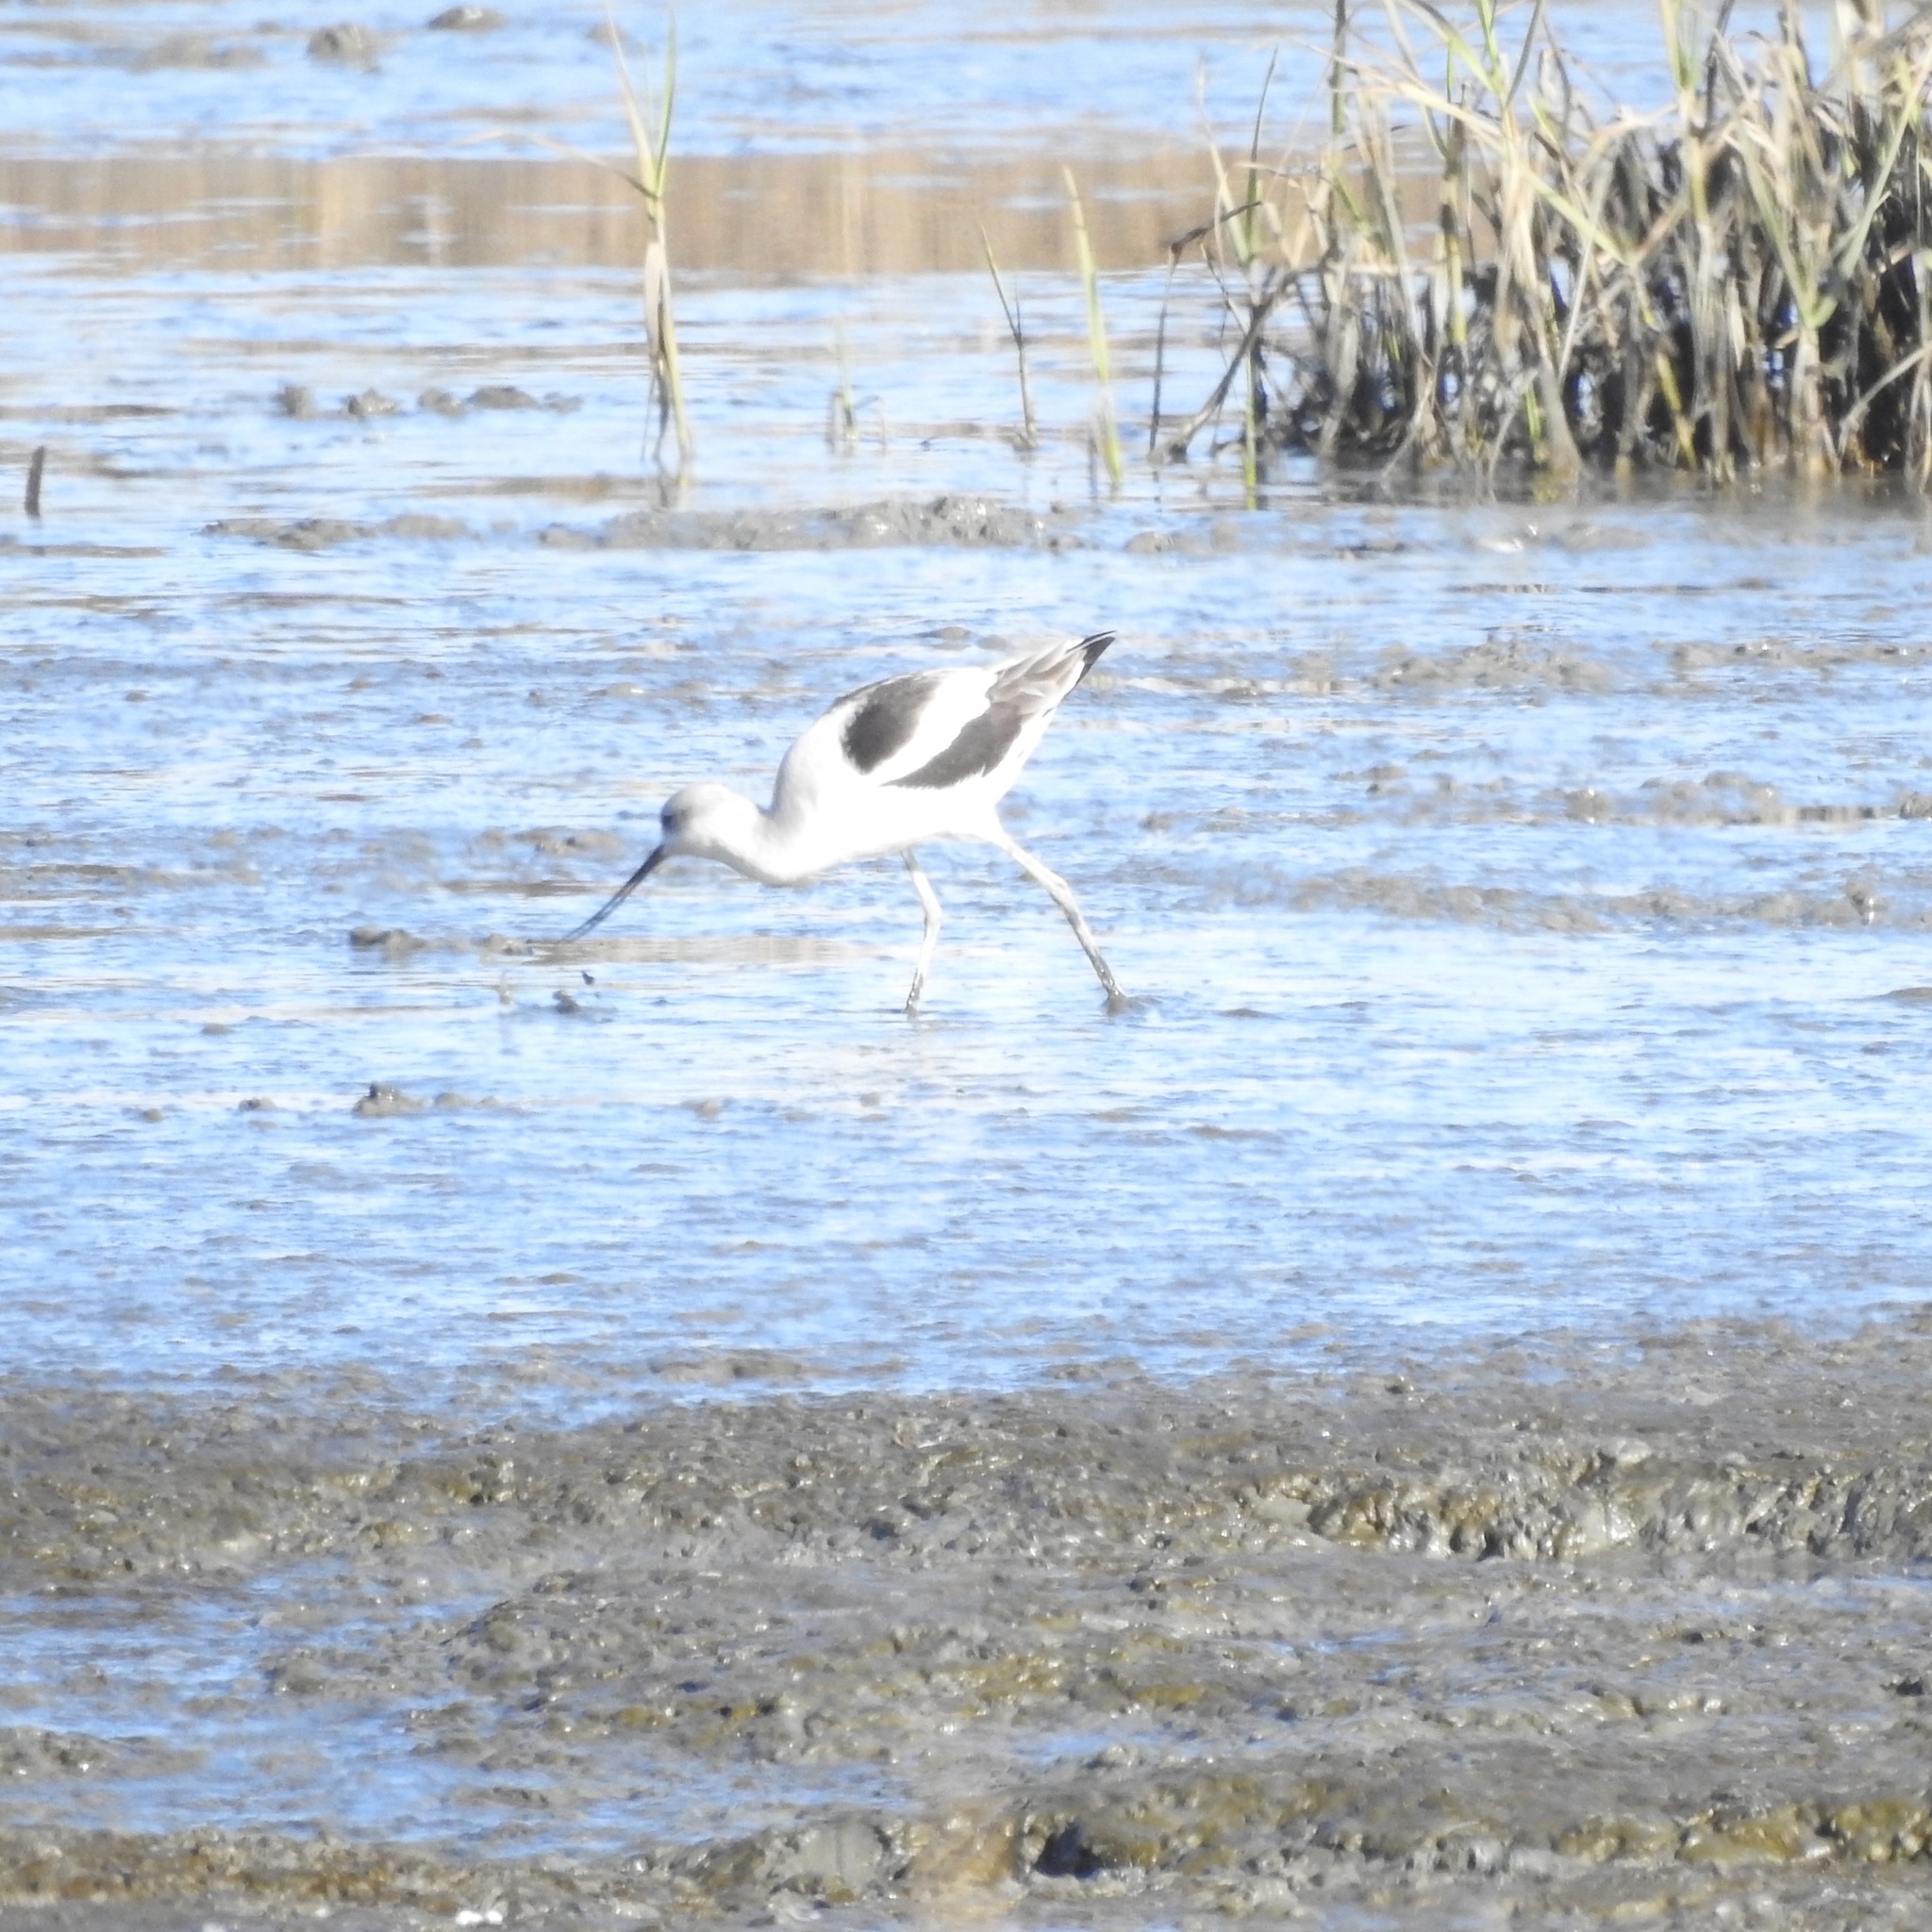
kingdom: Animalia
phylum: Chordata
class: Aves
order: Charadriiformes
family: Recurvirostridae
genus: Recurvirostra
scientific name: Recurvirostra americana
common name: American avocet
